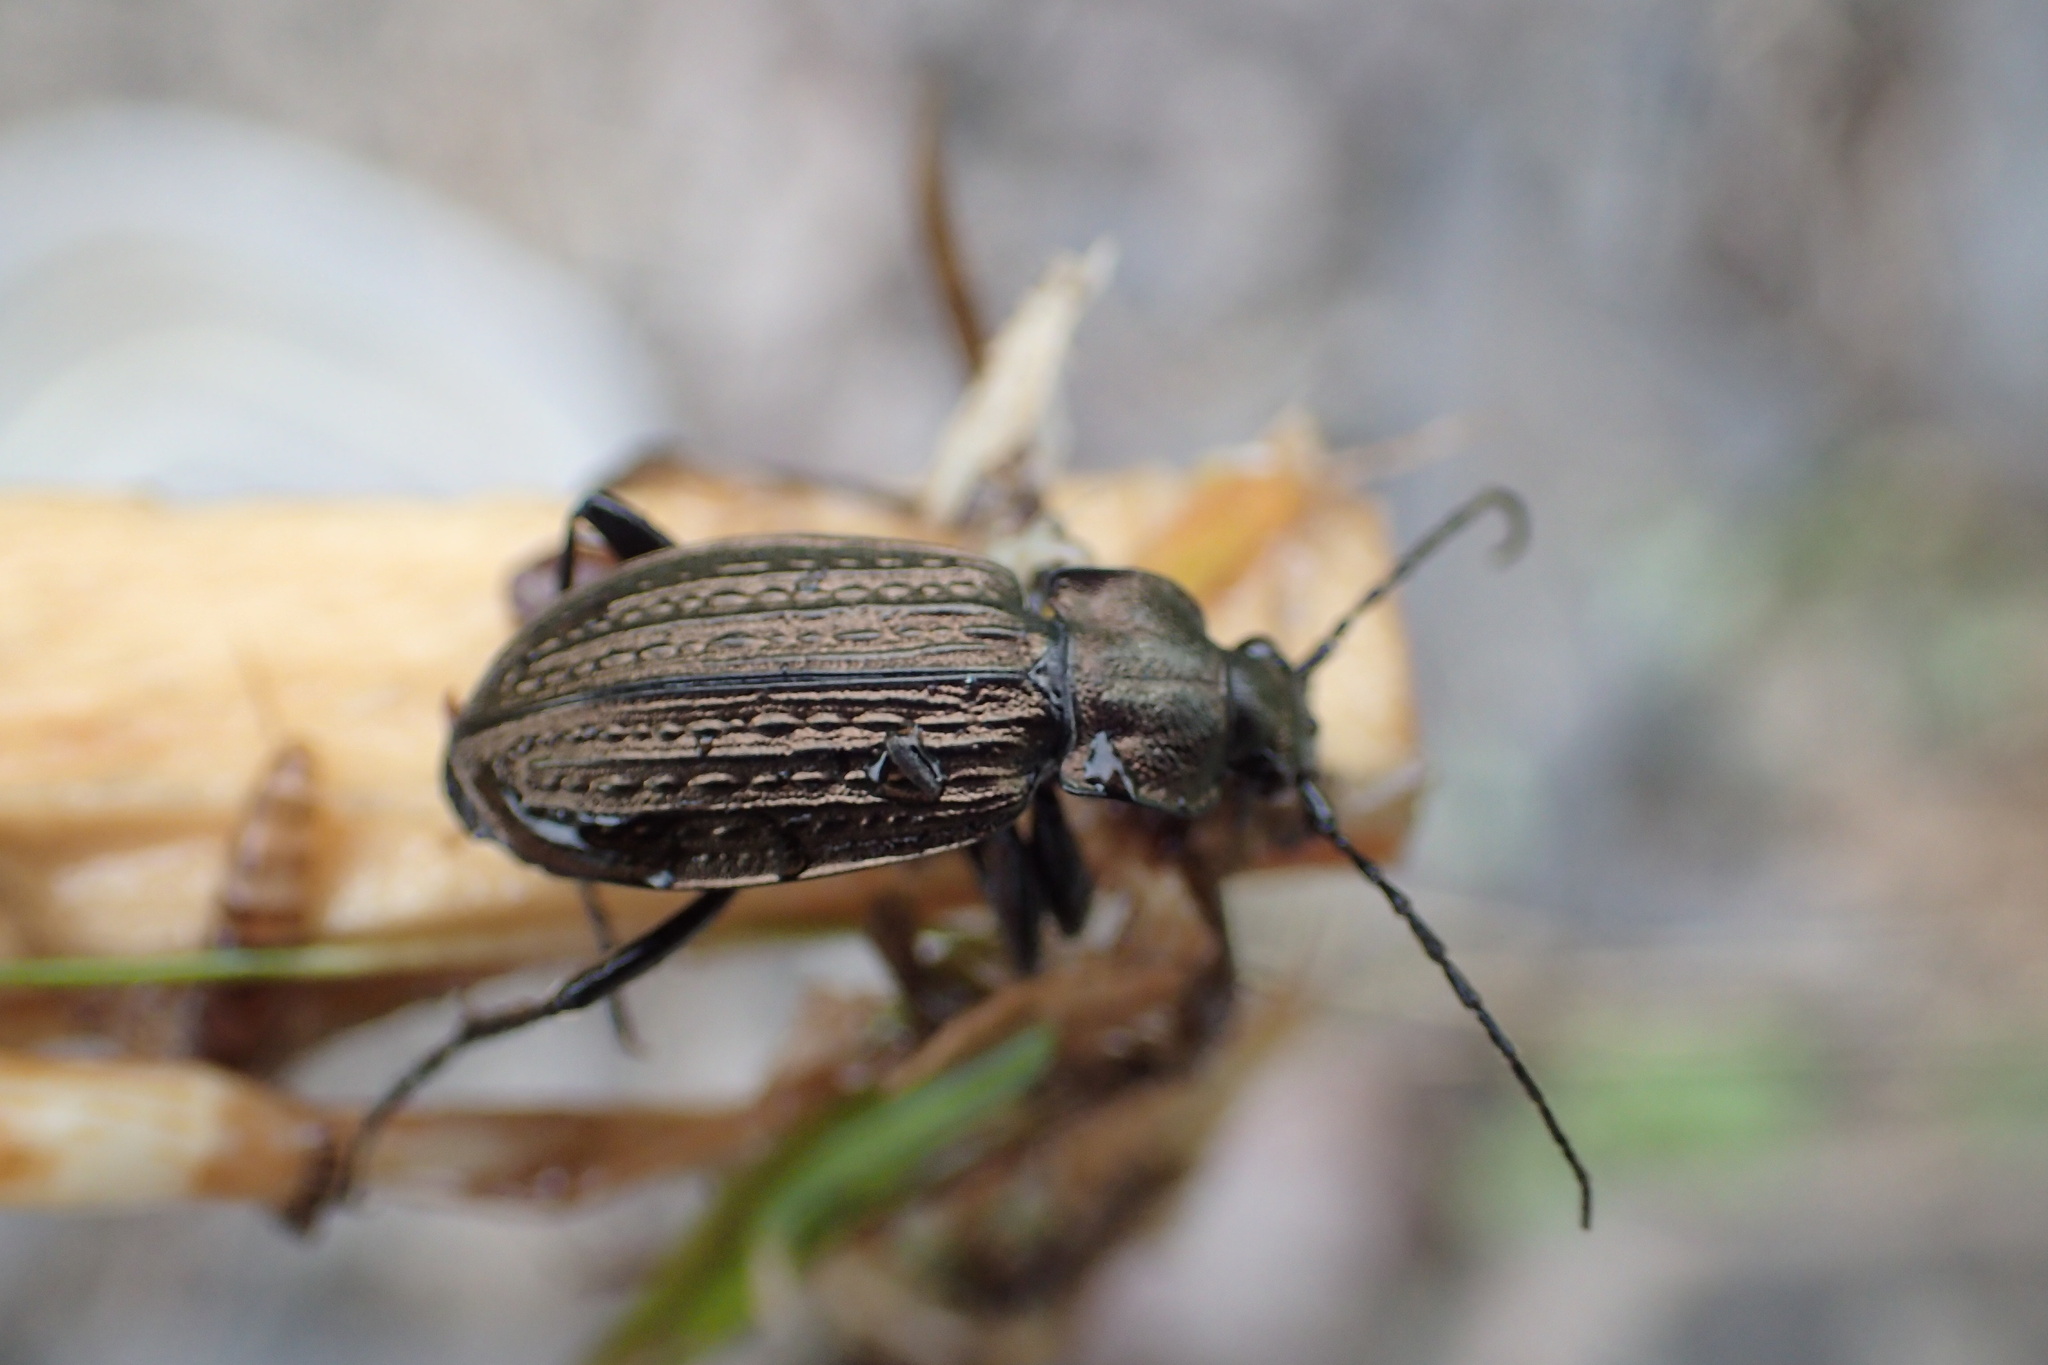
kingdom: Animalia
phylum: Arthropoda
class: Insecta
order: Coleoptera
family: Carabidae
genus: Carabus
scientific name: Carabus granulatus
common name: Granulate ground beetle
